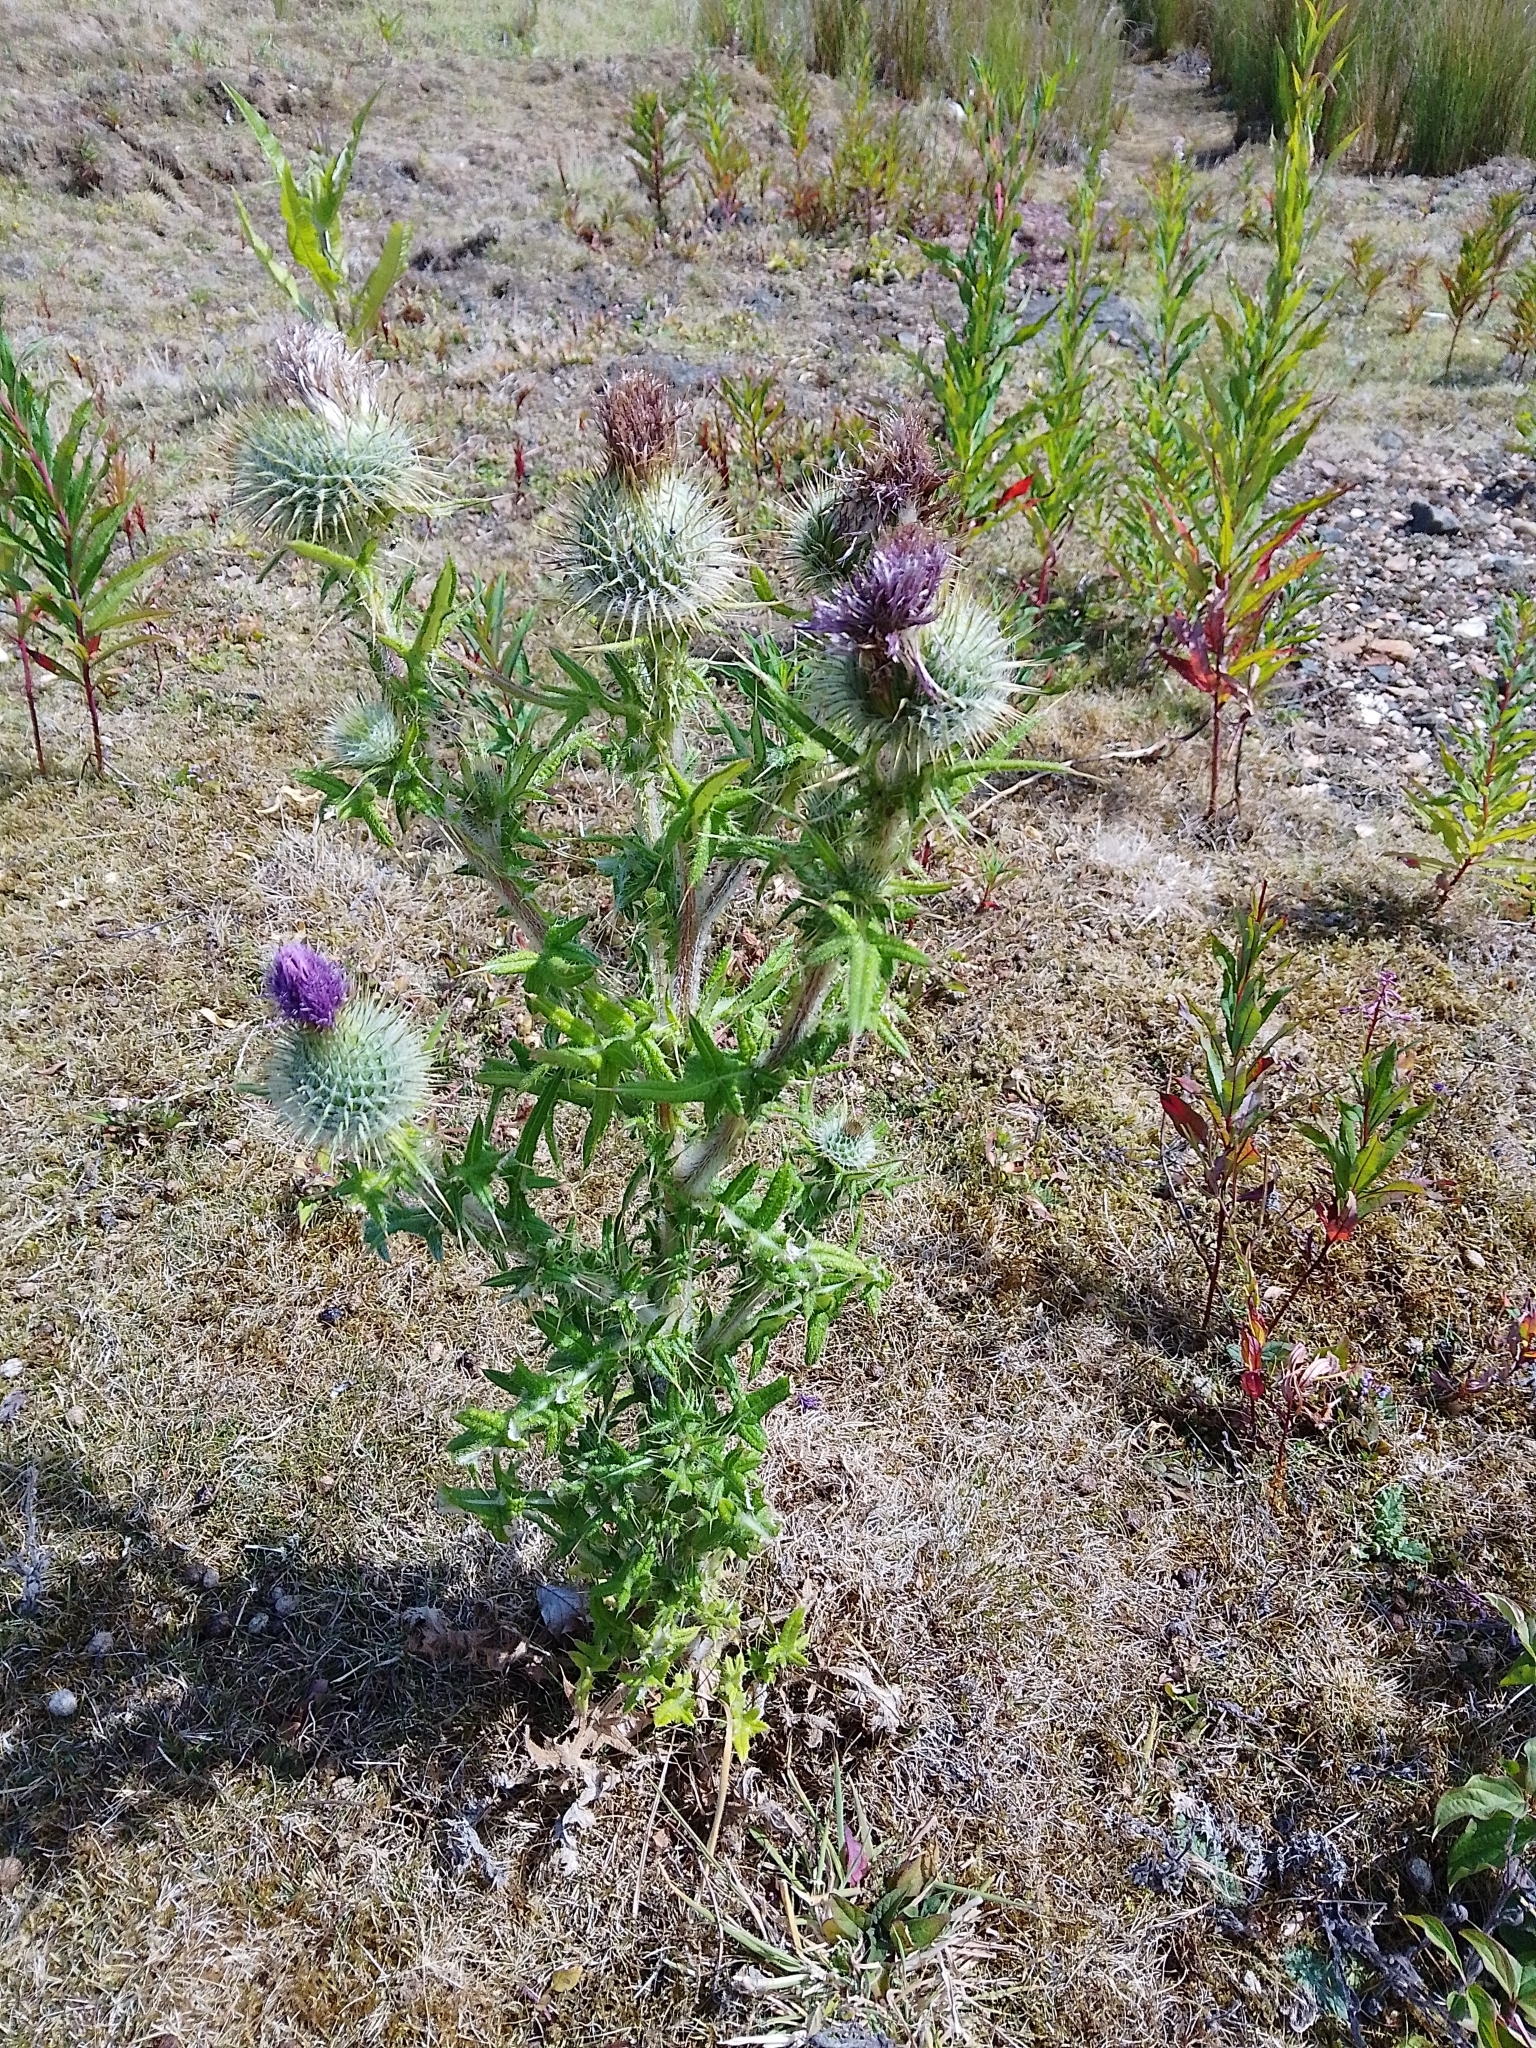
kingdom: Plantae
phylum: Tracheophyta
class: Magnoliopsida
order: Asterales
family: Asteraceae
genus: Cirsium
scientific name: Cirsium vulgare
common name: Bull thistle
